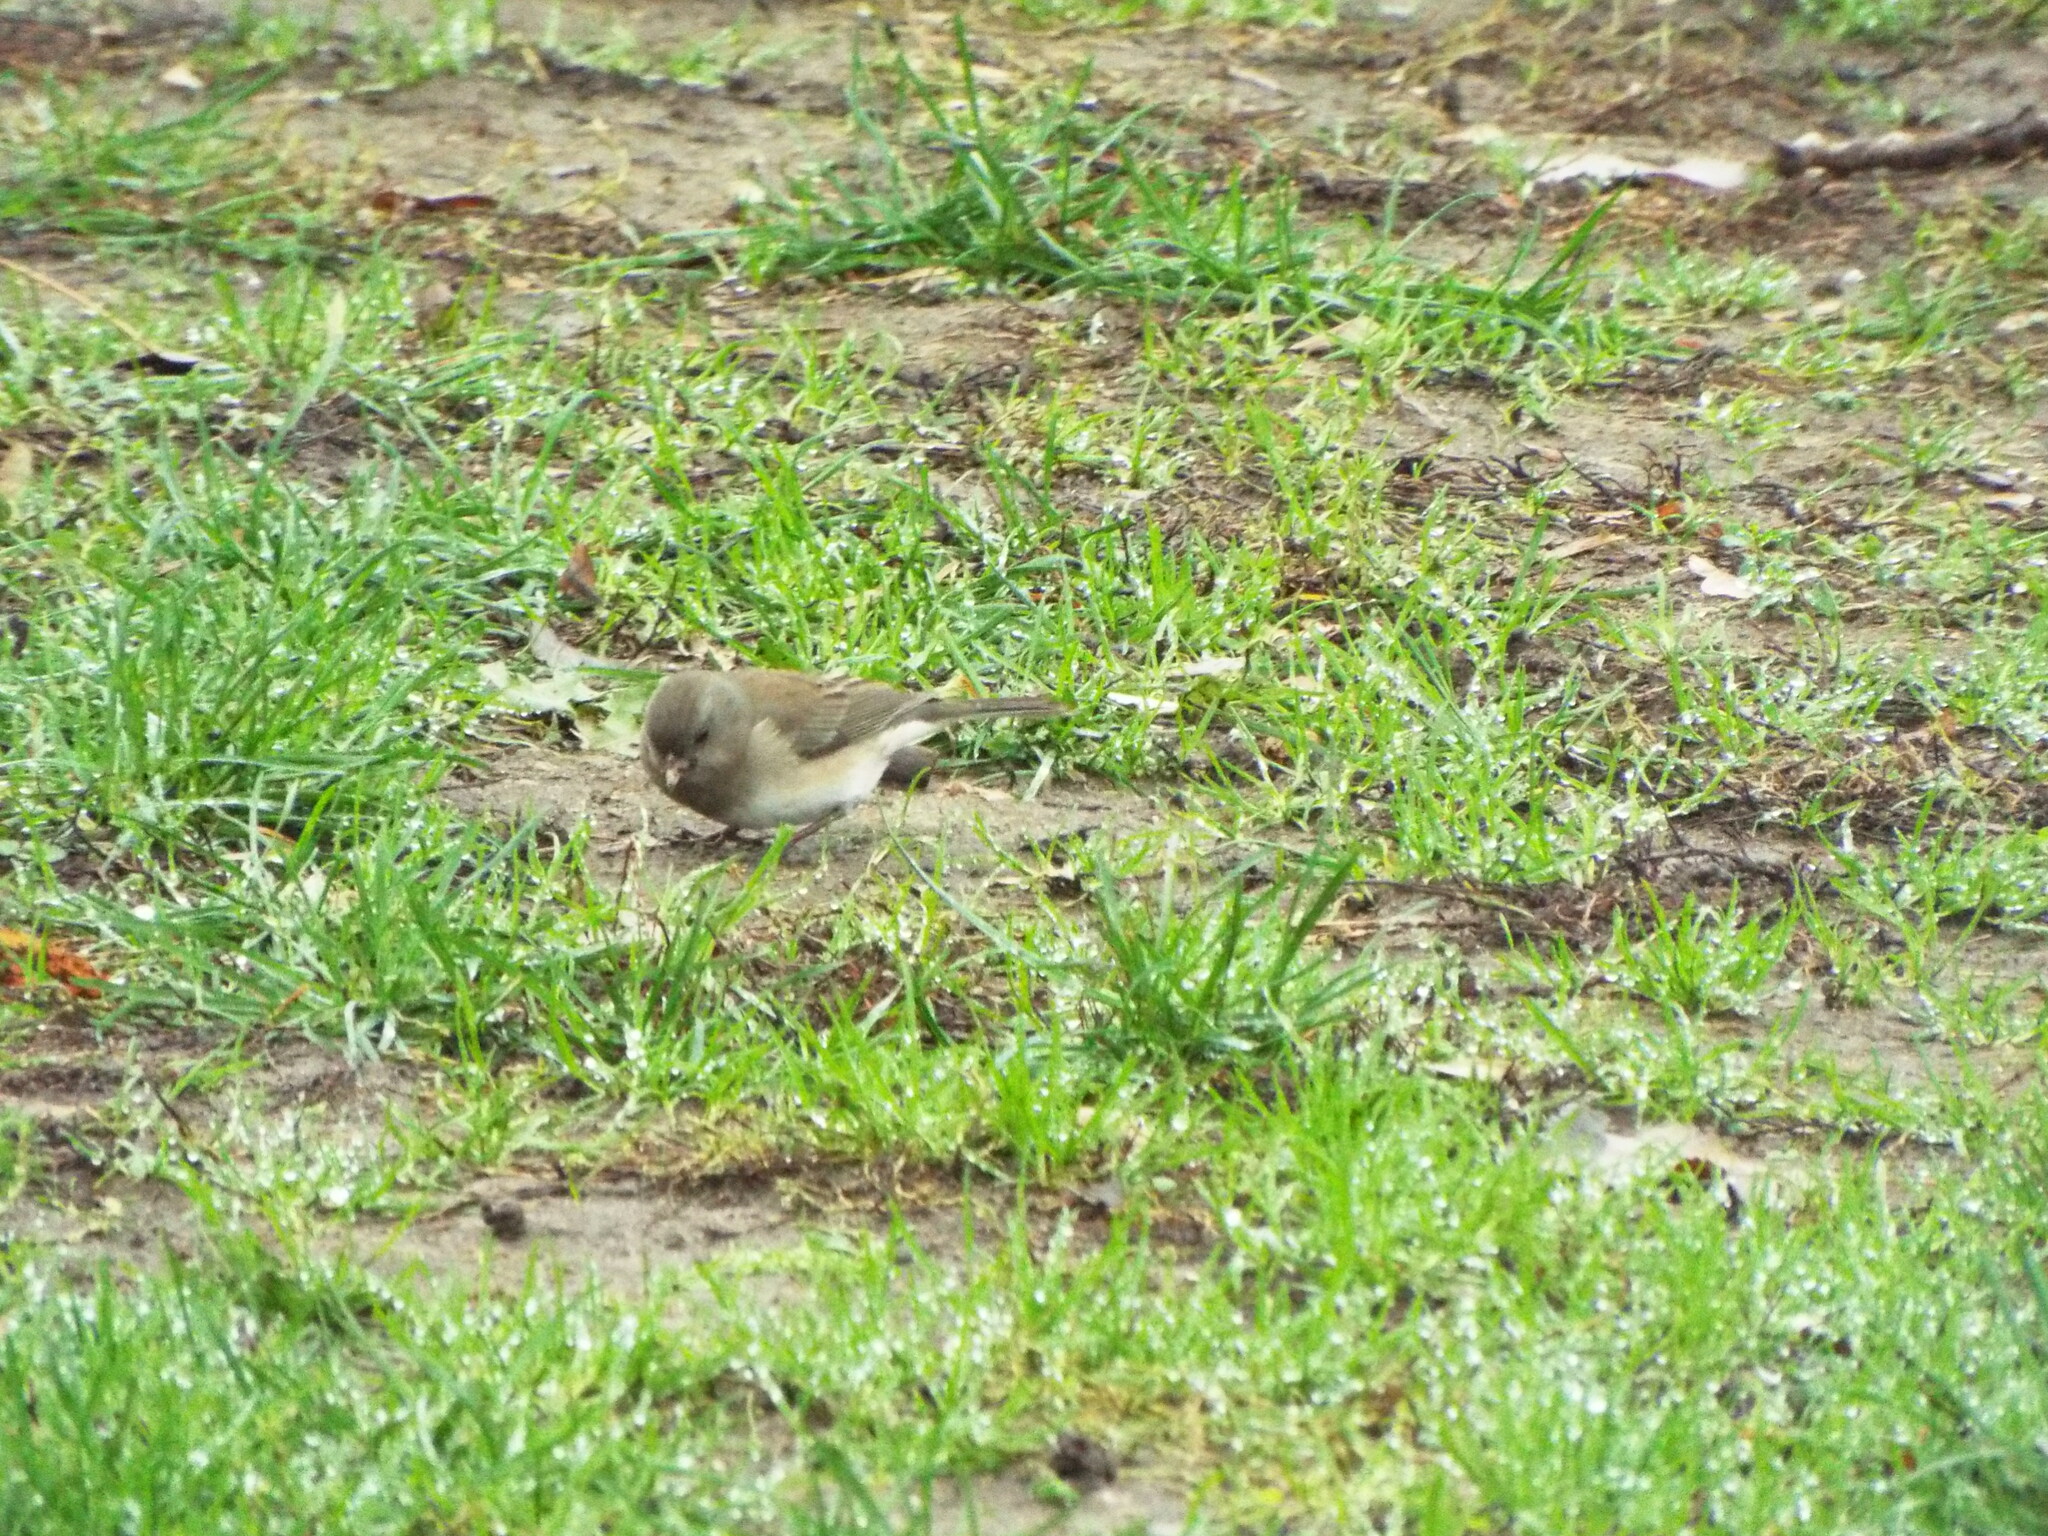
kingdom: Animalia
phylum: Chordata
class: Aves
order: Passeriformes
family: Passerellidae
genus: Junco
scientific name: Junco hyemalis
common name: Dark-eyed junco
